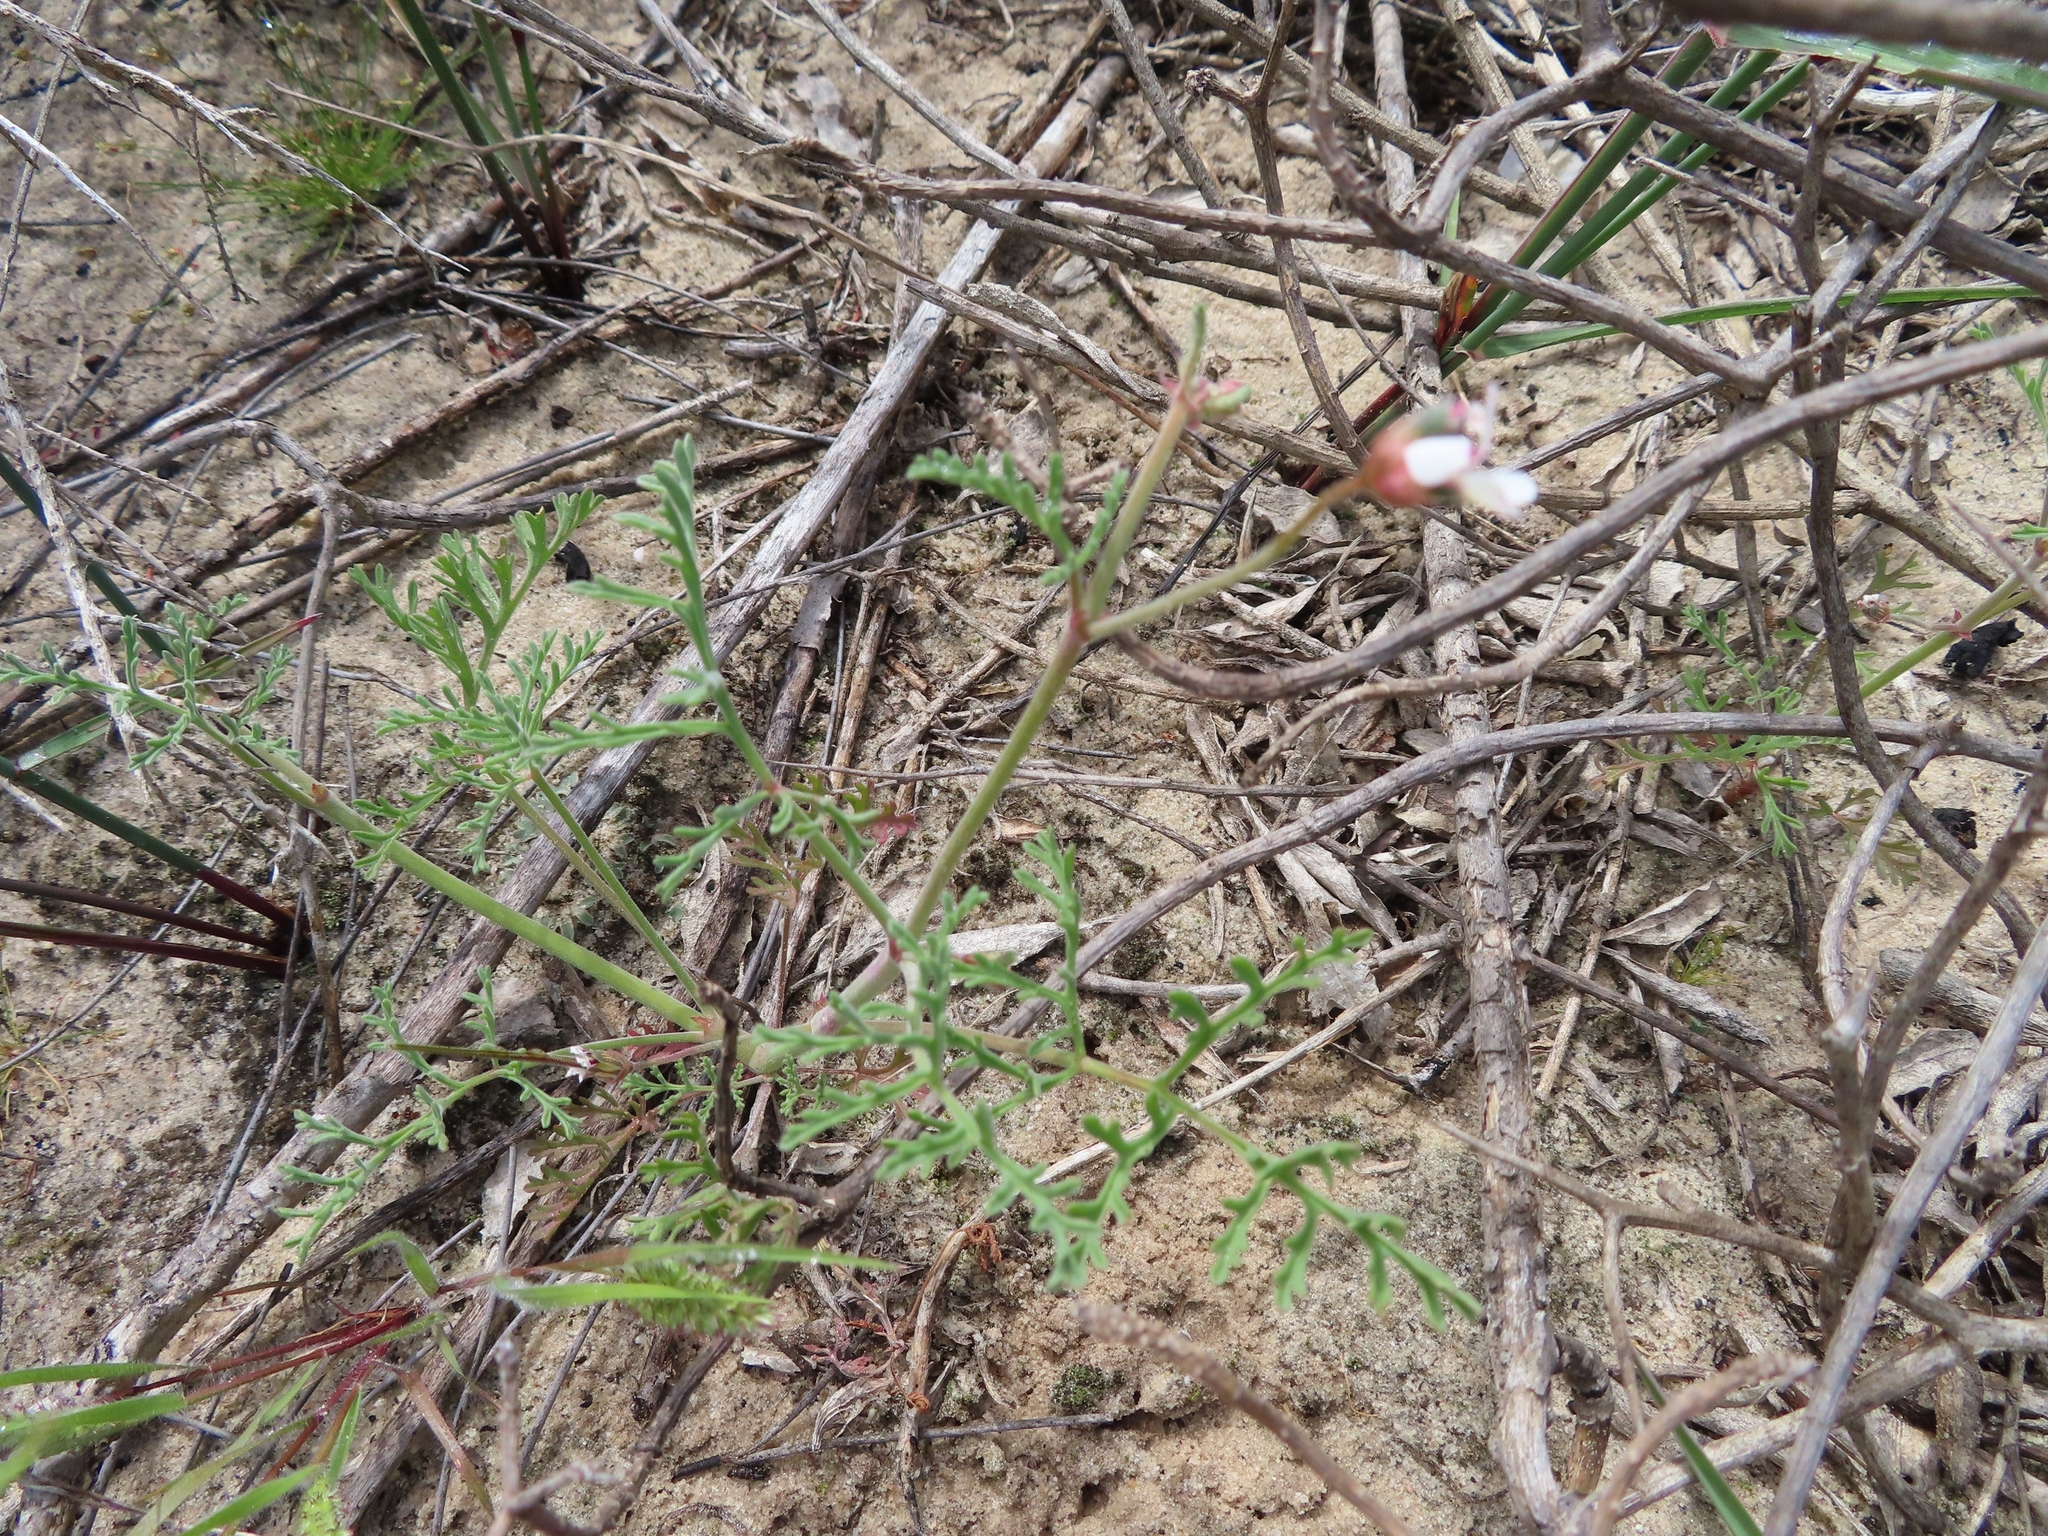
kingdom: Plantae
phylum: Tracheophyta
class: Magnoliopsida
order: Geraniales
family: Geraniaceae
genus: Pelargonium
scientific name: Pelargonium senecioides
